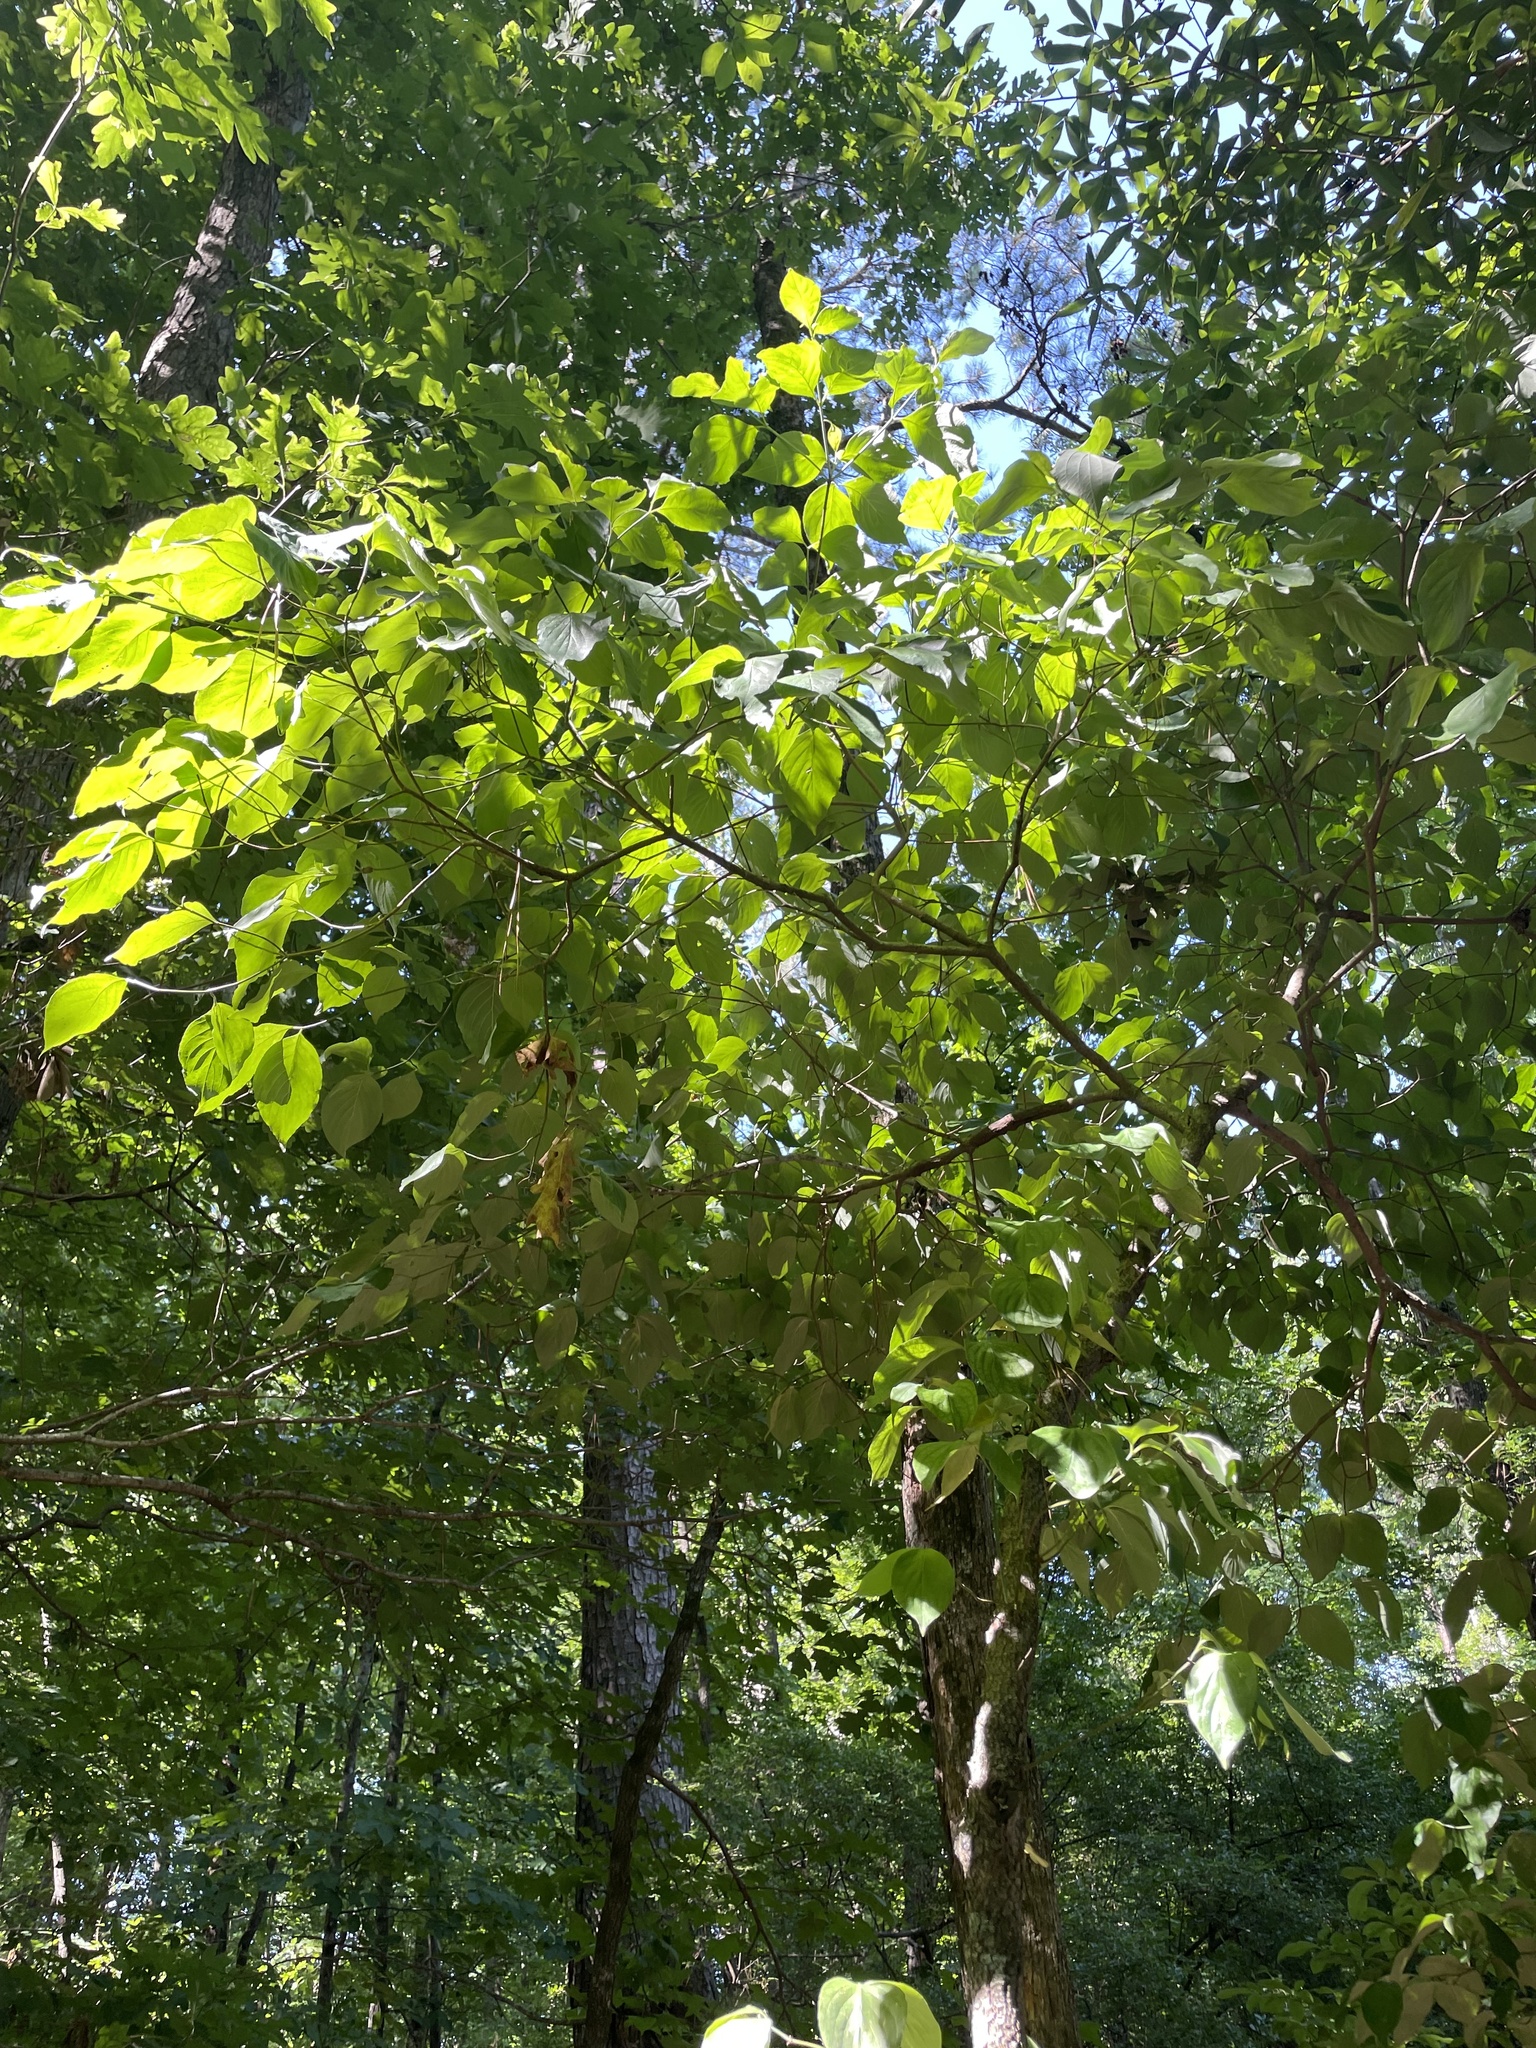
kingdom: Plantae
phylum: Tracheophyta
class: Magnoliopsida
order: Cornales
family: Cornaceae
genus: Cornus
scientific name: Cornus florida
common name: Flowering dogwood
